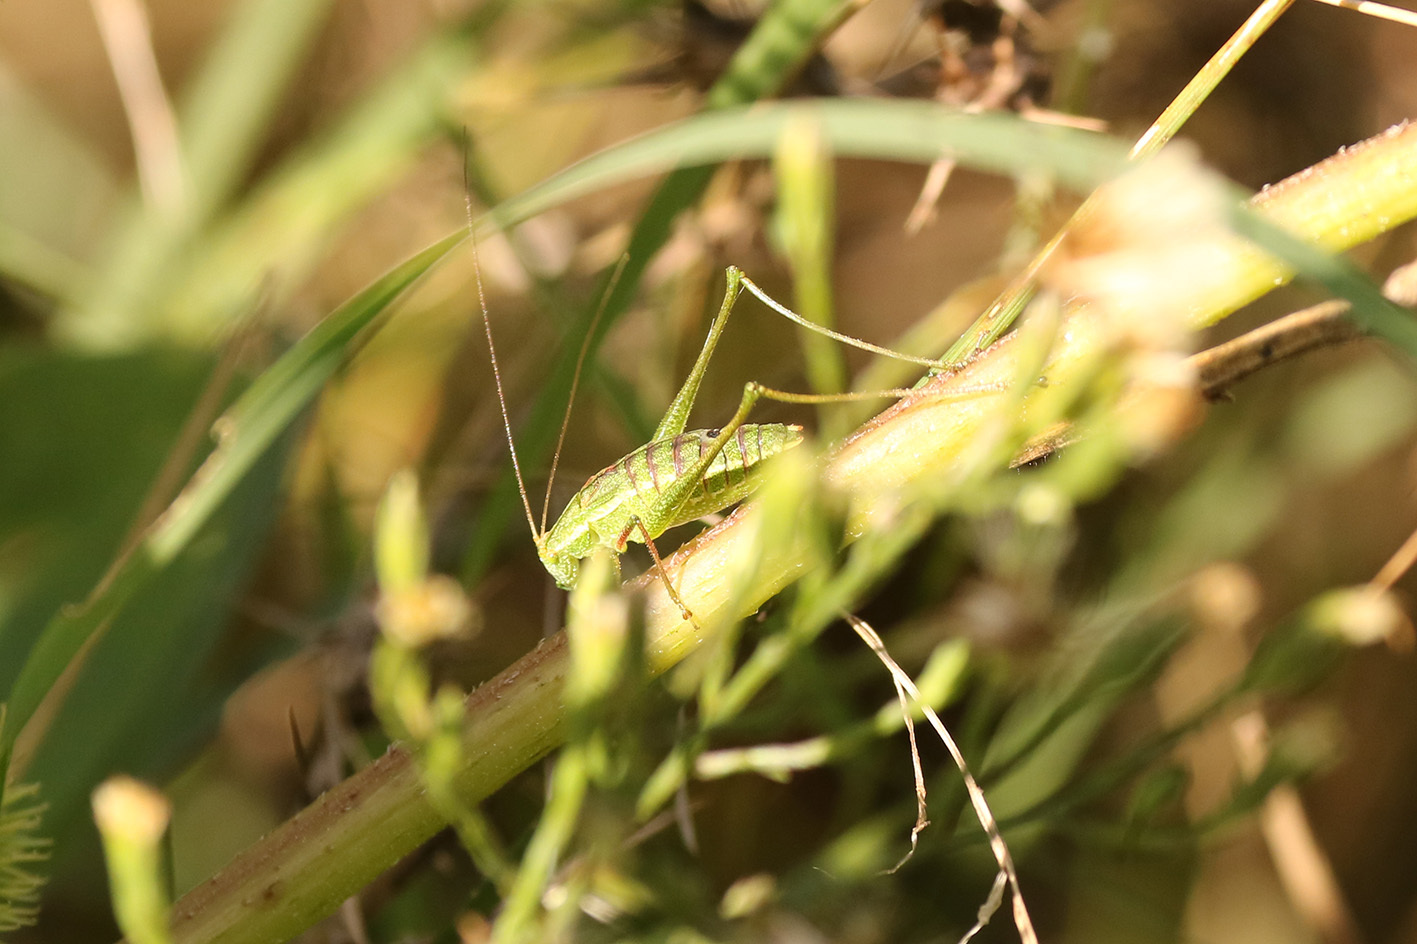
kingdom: Animalia
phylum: Arthropoda
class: Insecta
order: Orthoptera
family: Tettigoniidae
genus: Anisophya
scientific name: Anisophya punctinervis
